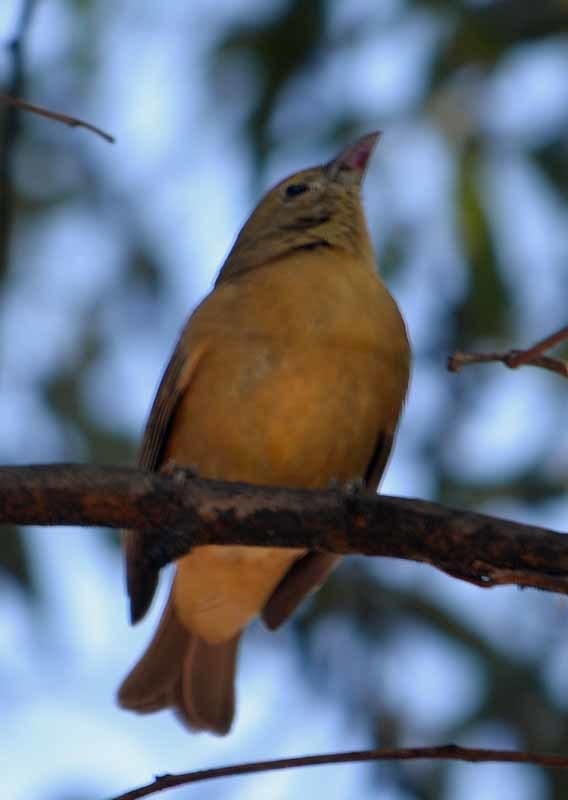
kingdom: Animalia
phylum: Chordata
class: Aves
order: Passeriformes
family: Cardinalidae
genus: Piranga
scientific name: Piranga rubra
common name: Summer tanager
